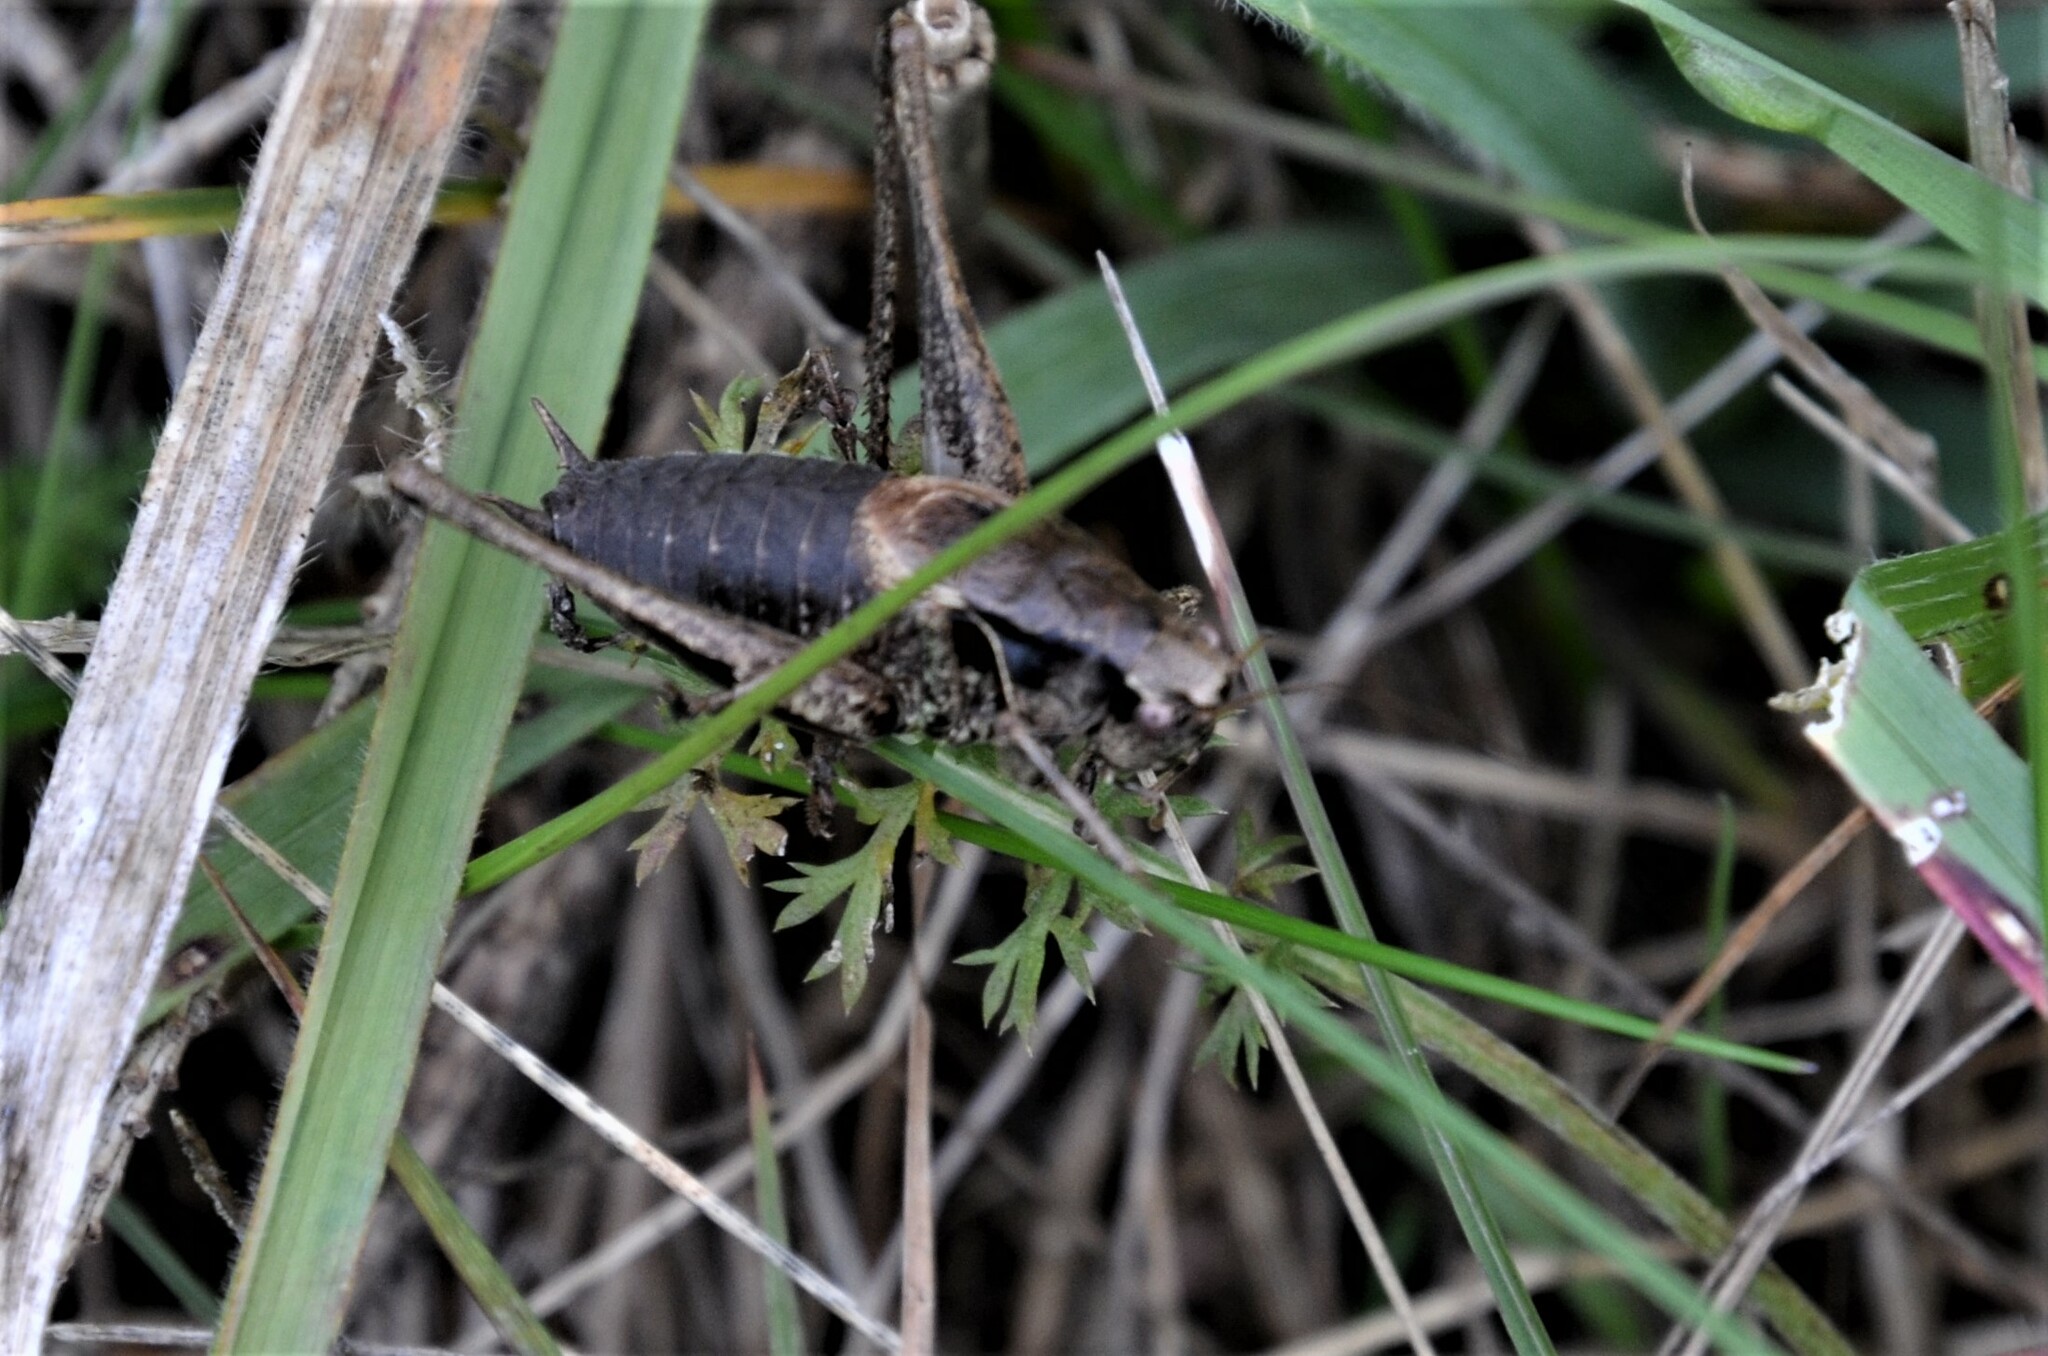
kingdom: Animalia
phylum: Arthropoda
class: Insecta
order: Orthoptera
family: Tettigoniidae
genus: Pholidoptera
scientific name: Pholidoptera griseoaptera
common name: Dark bush-cricket
